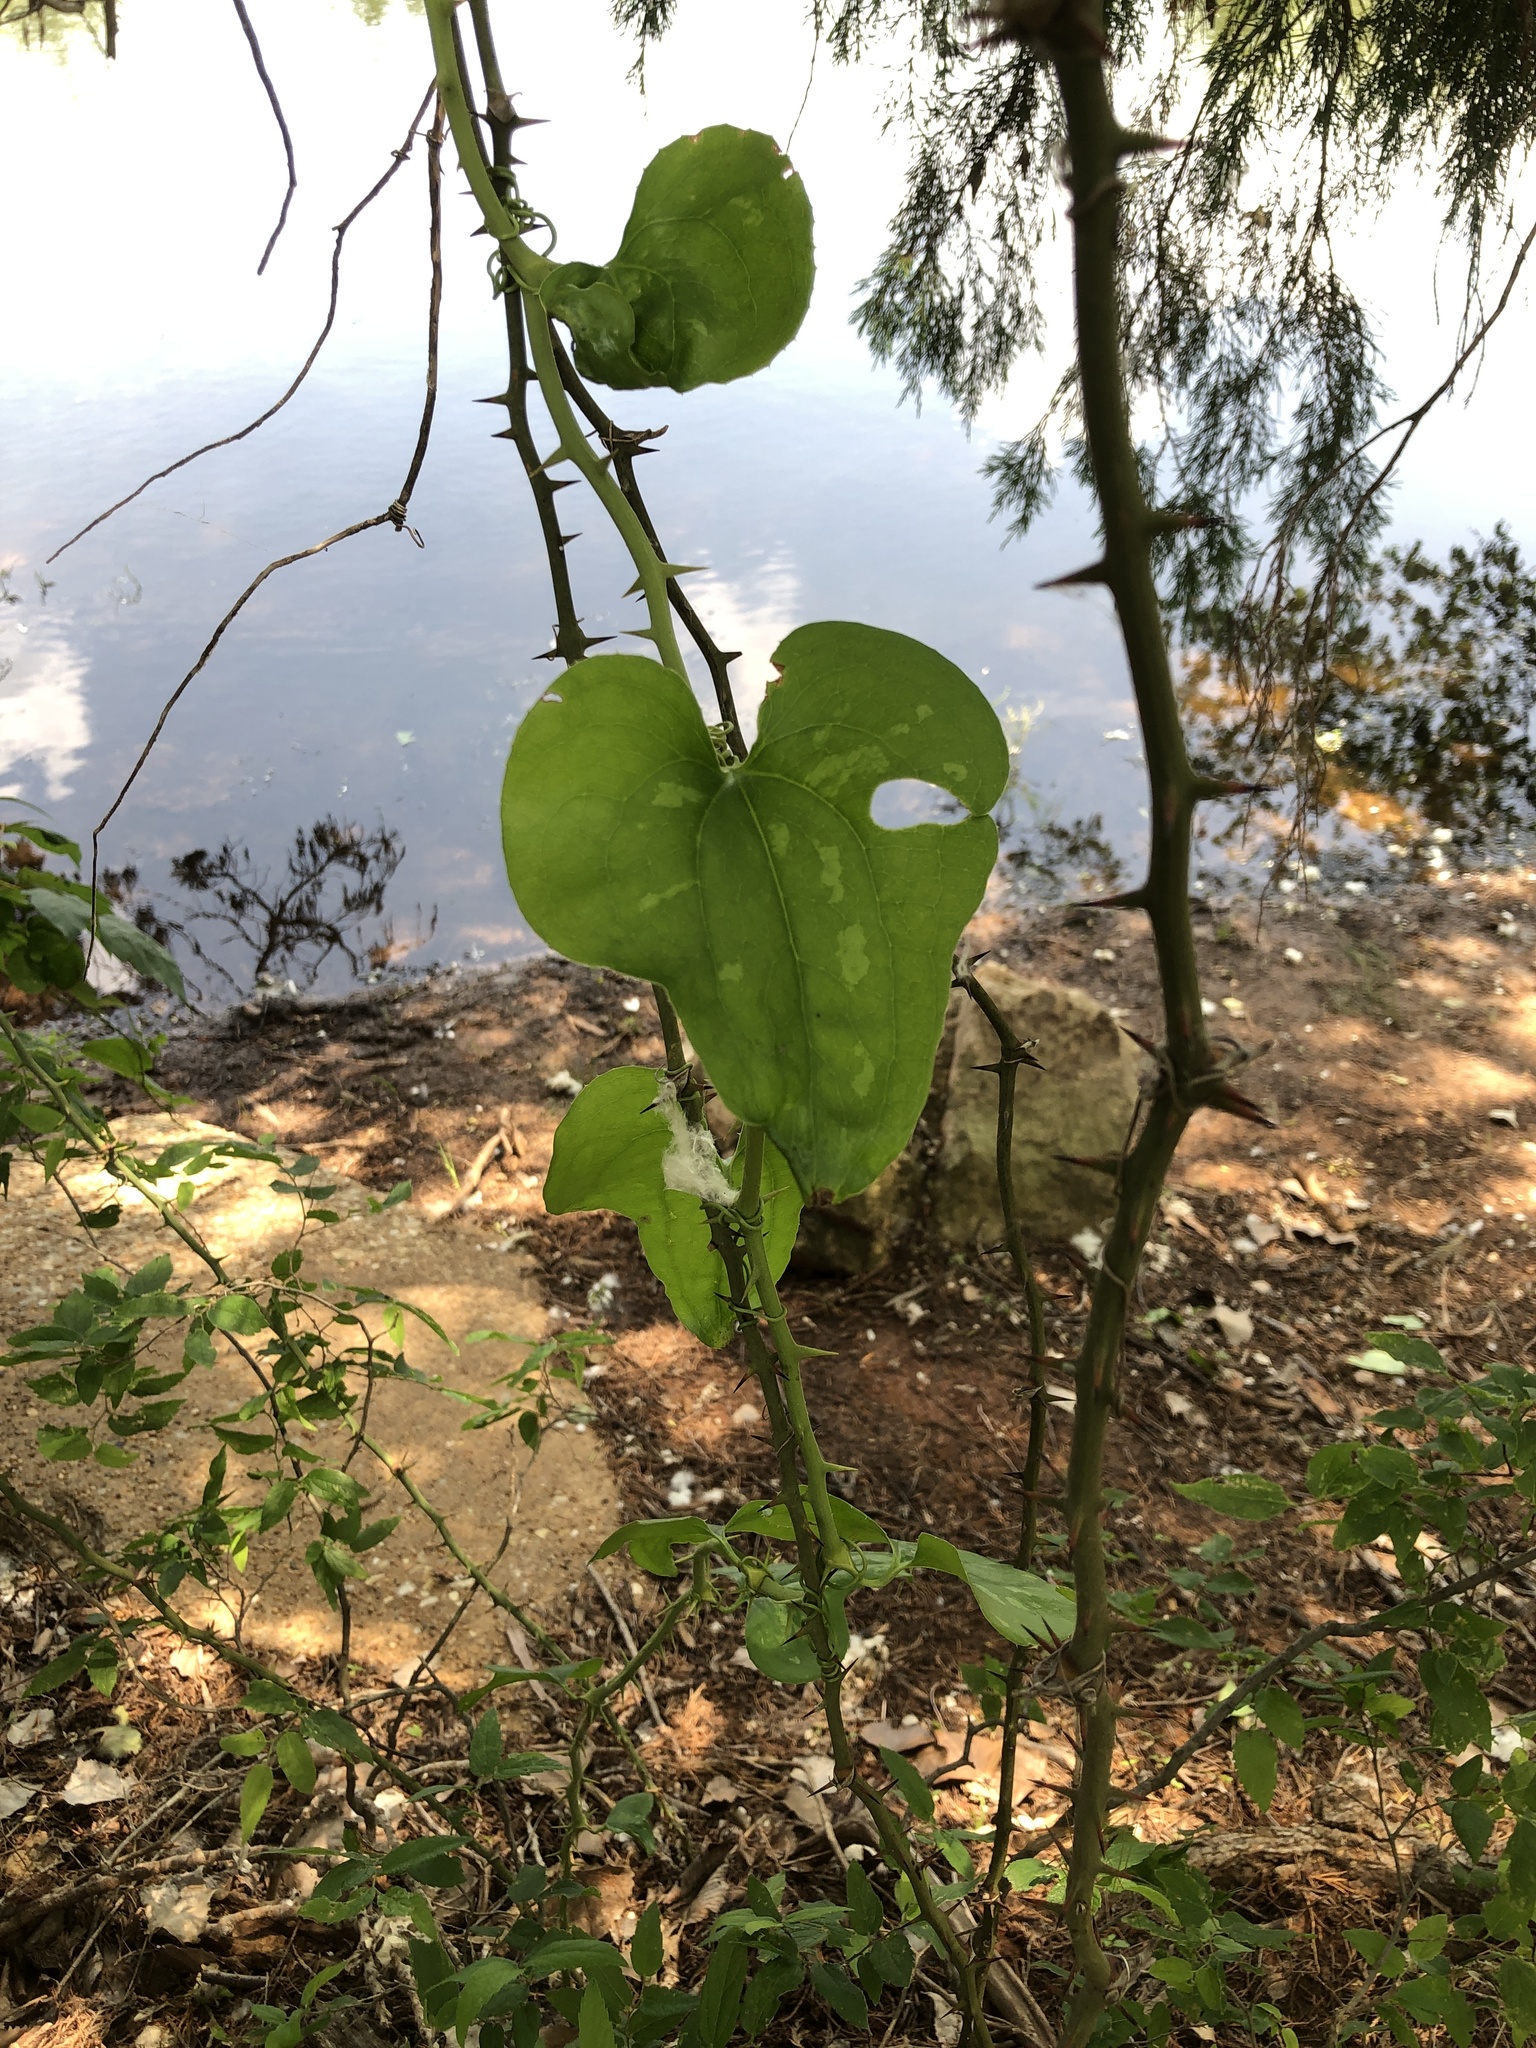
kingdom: Plantae
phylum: Tracheophyta
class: Liliopsida
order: Liliales
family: Smilacaceae
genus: Smilax
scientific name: Smilax bona-nox
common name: Catbrier
